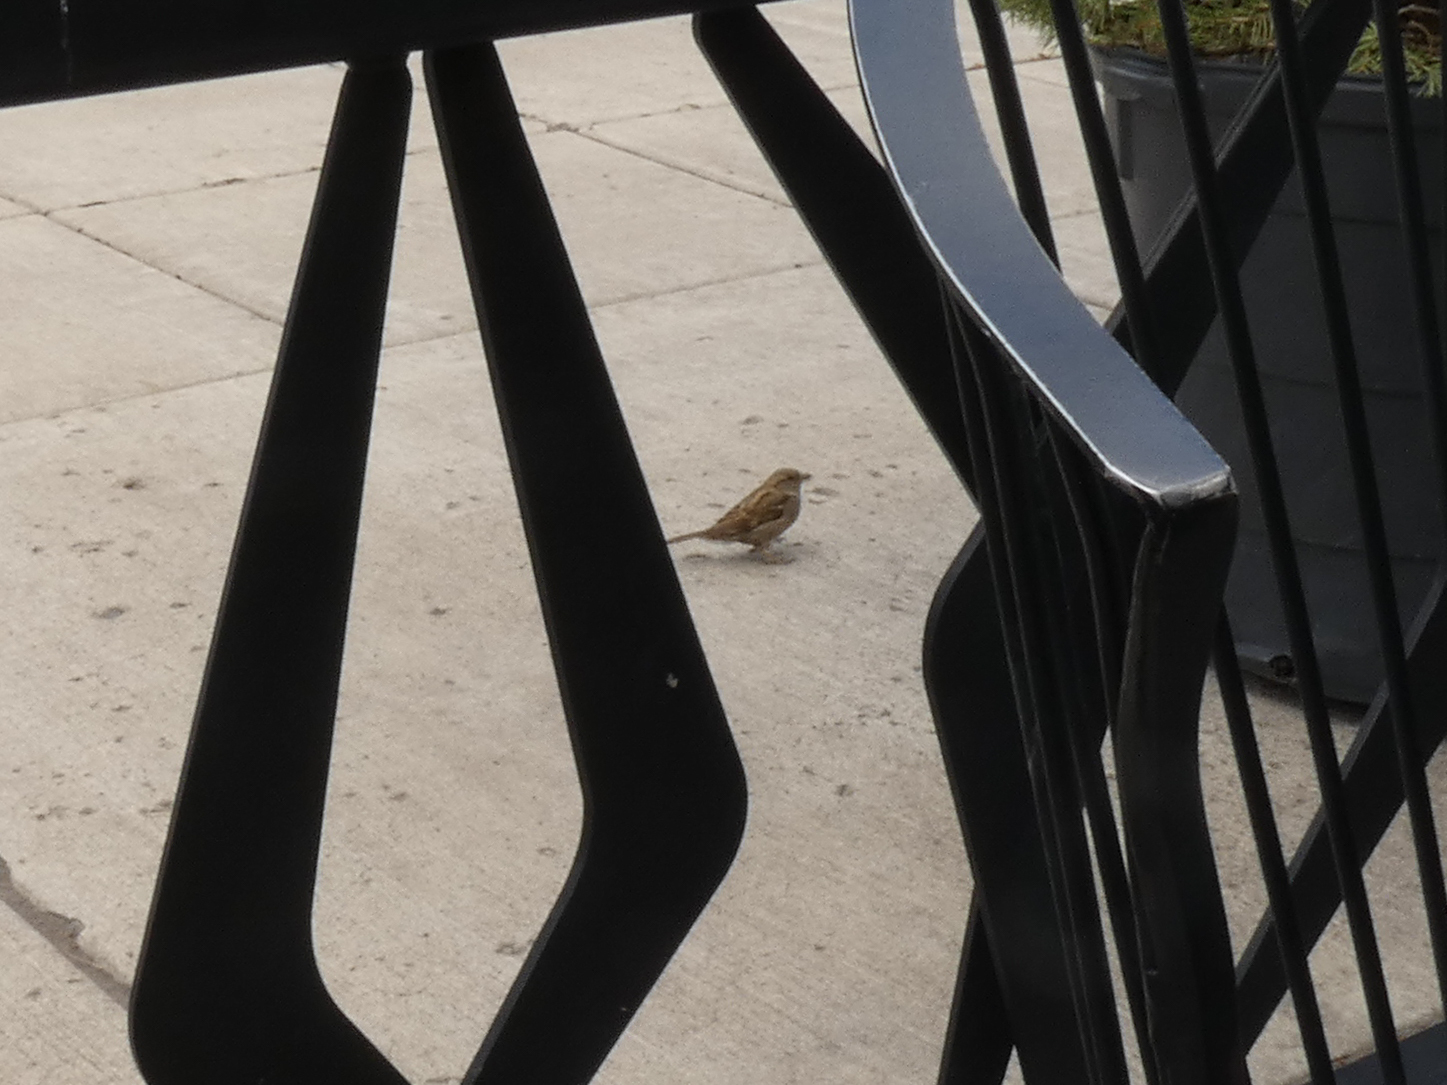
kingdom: Animalia
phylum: Chordata
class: Aves
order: Passeriformes
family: Passeridae
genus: Passer
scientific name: Passer domesticus
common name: House sparrow
